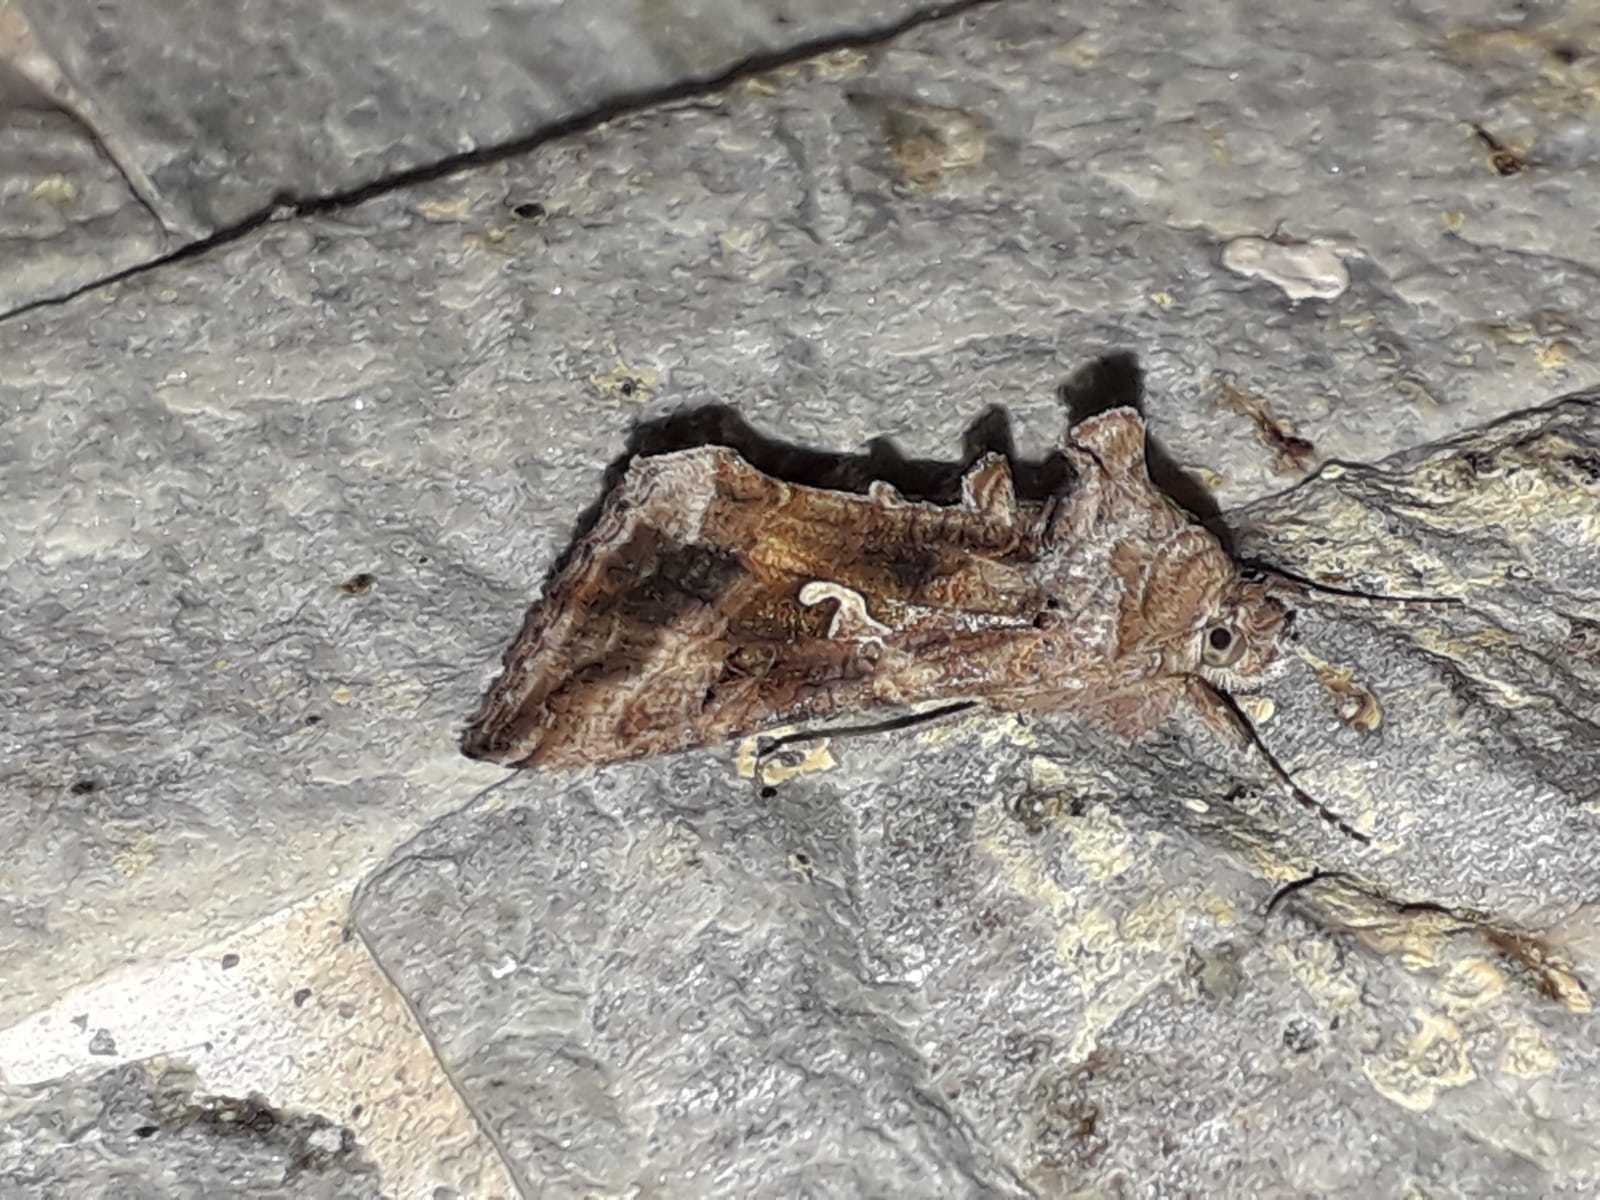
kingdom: Animalia
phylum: Arthropoda
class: Insecta
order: Lepidoptera
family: Noctuidae
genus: Autographa
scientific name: Autographa gamma
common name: Silver y
